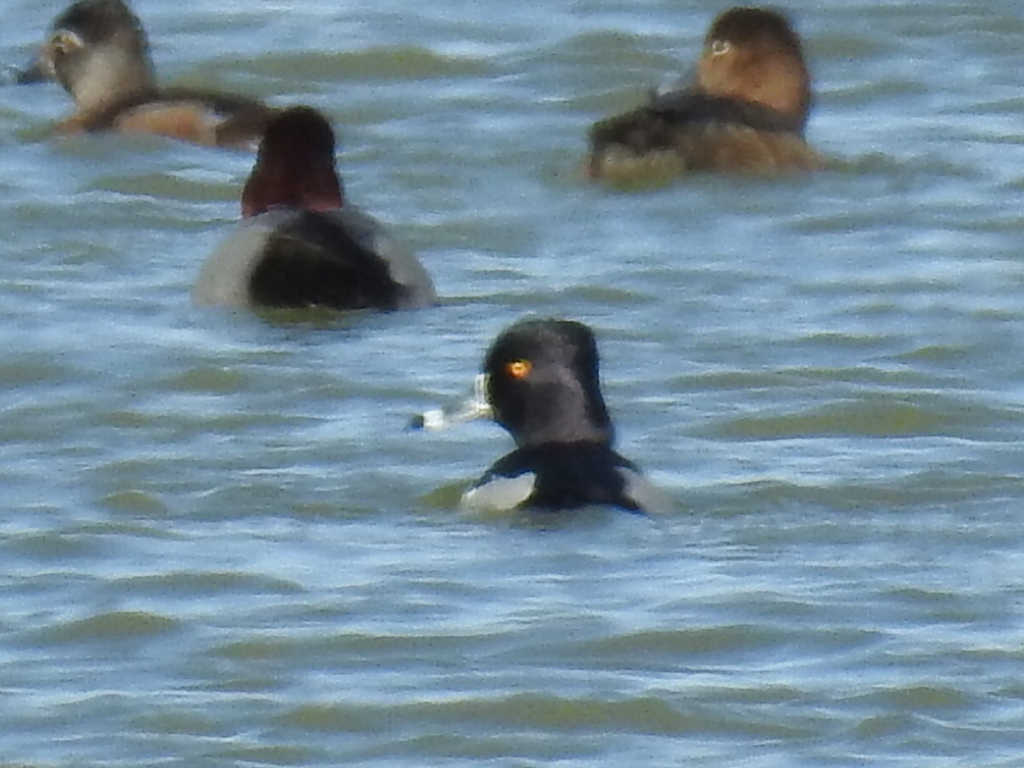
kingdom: Animalia
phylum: Chordata
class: Aves
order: Anseriformes
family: Anatidae
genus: Aythya
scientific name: Aythya collaris
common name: Ring-necked duck
